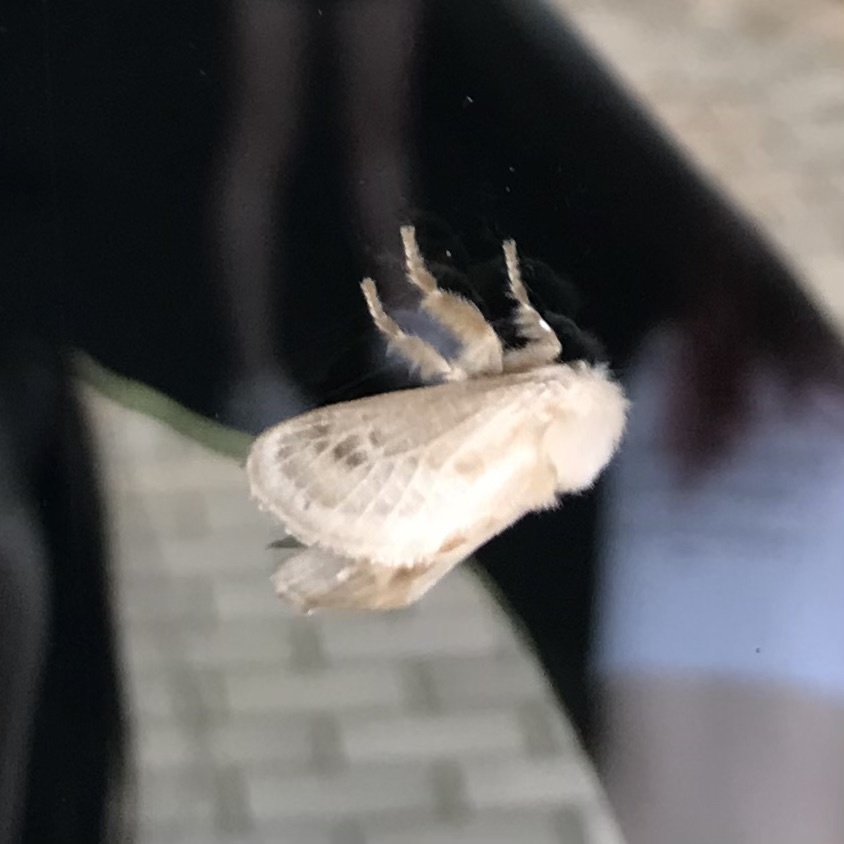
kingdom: Animalia
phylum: Arthropoda
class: Insecta
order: Lepidoptera
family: Limacodidae
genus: Doratifera
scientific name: Doratifera pinguis
